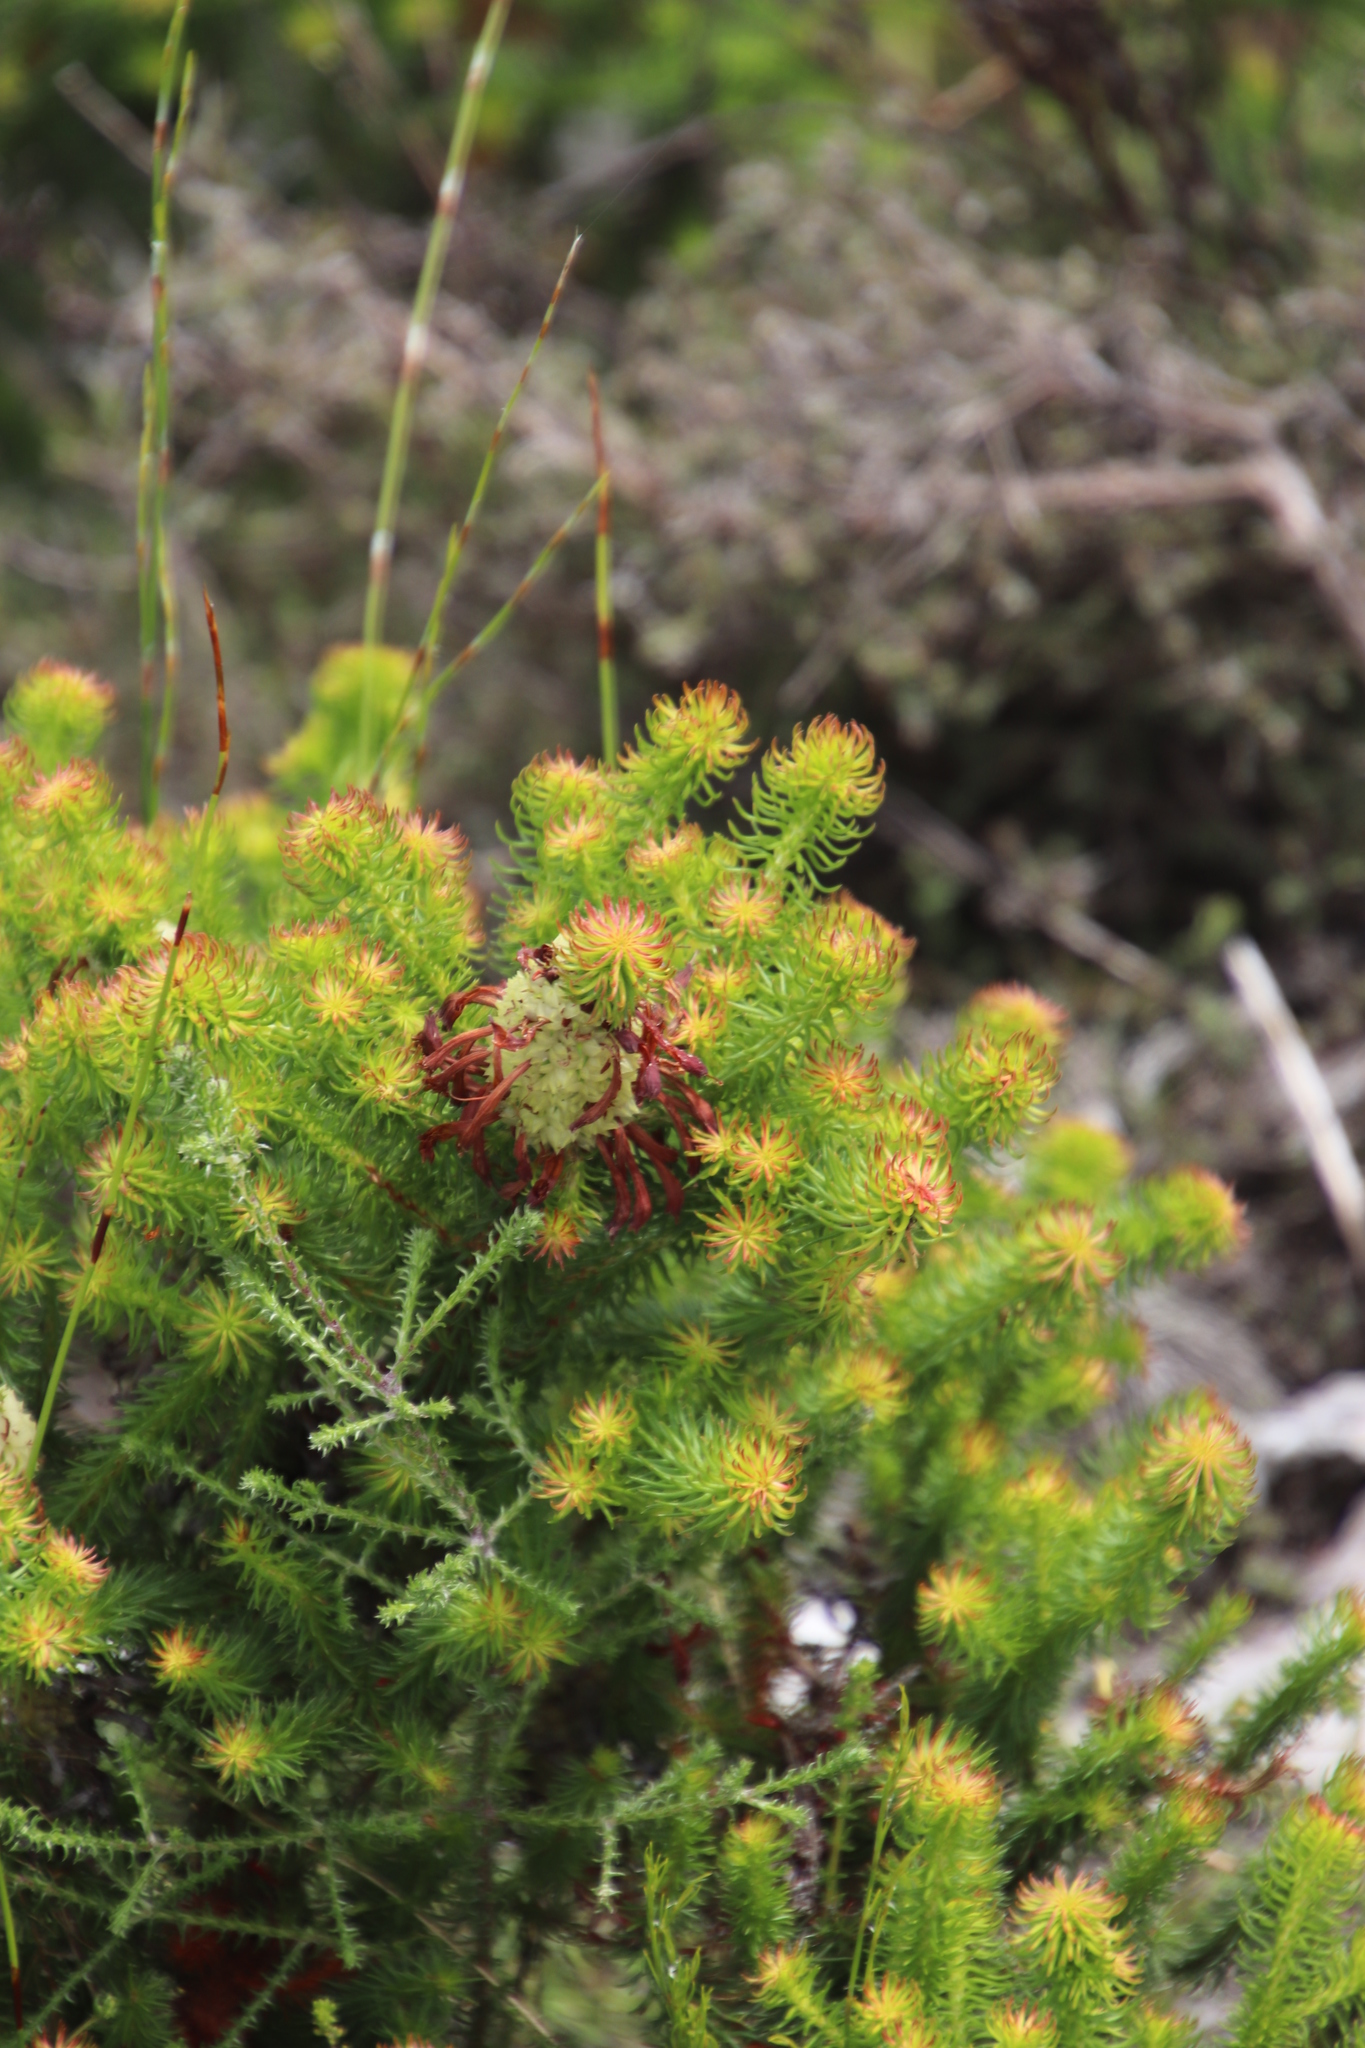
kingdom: Plantae
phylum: Tracheophyta
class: Magnoliopsida
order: Ericales
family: Ericaceae
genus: Erica
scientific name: Erica sessiliflora
